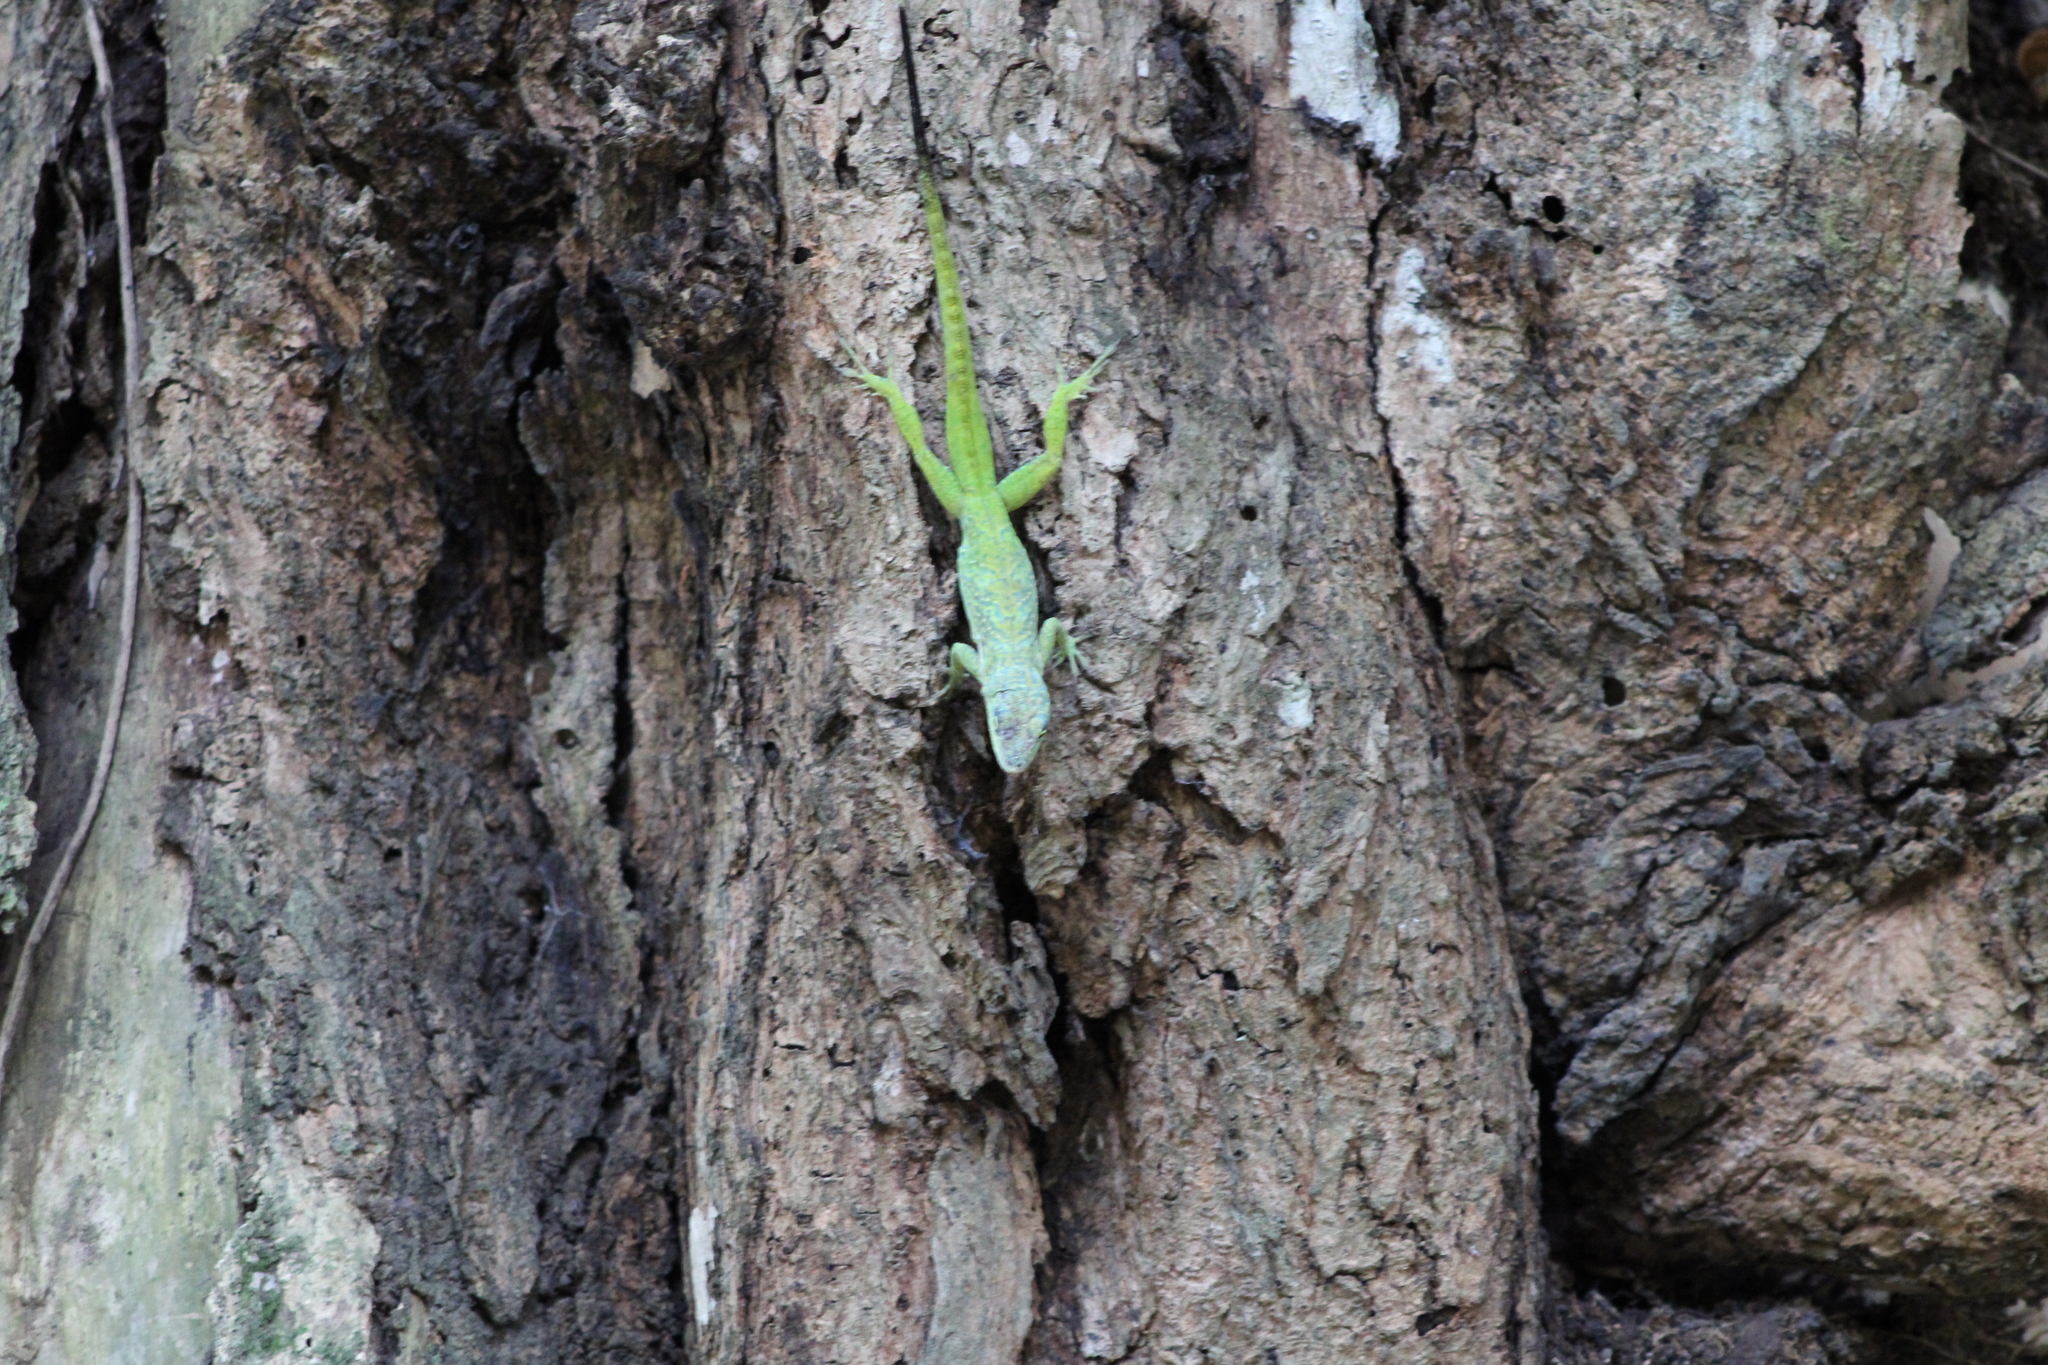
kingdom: Animalia
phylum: Chordata
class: Squamata
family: Dactyloidae
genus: Anolis
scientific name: Anolis roquet
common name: Martinique anole
